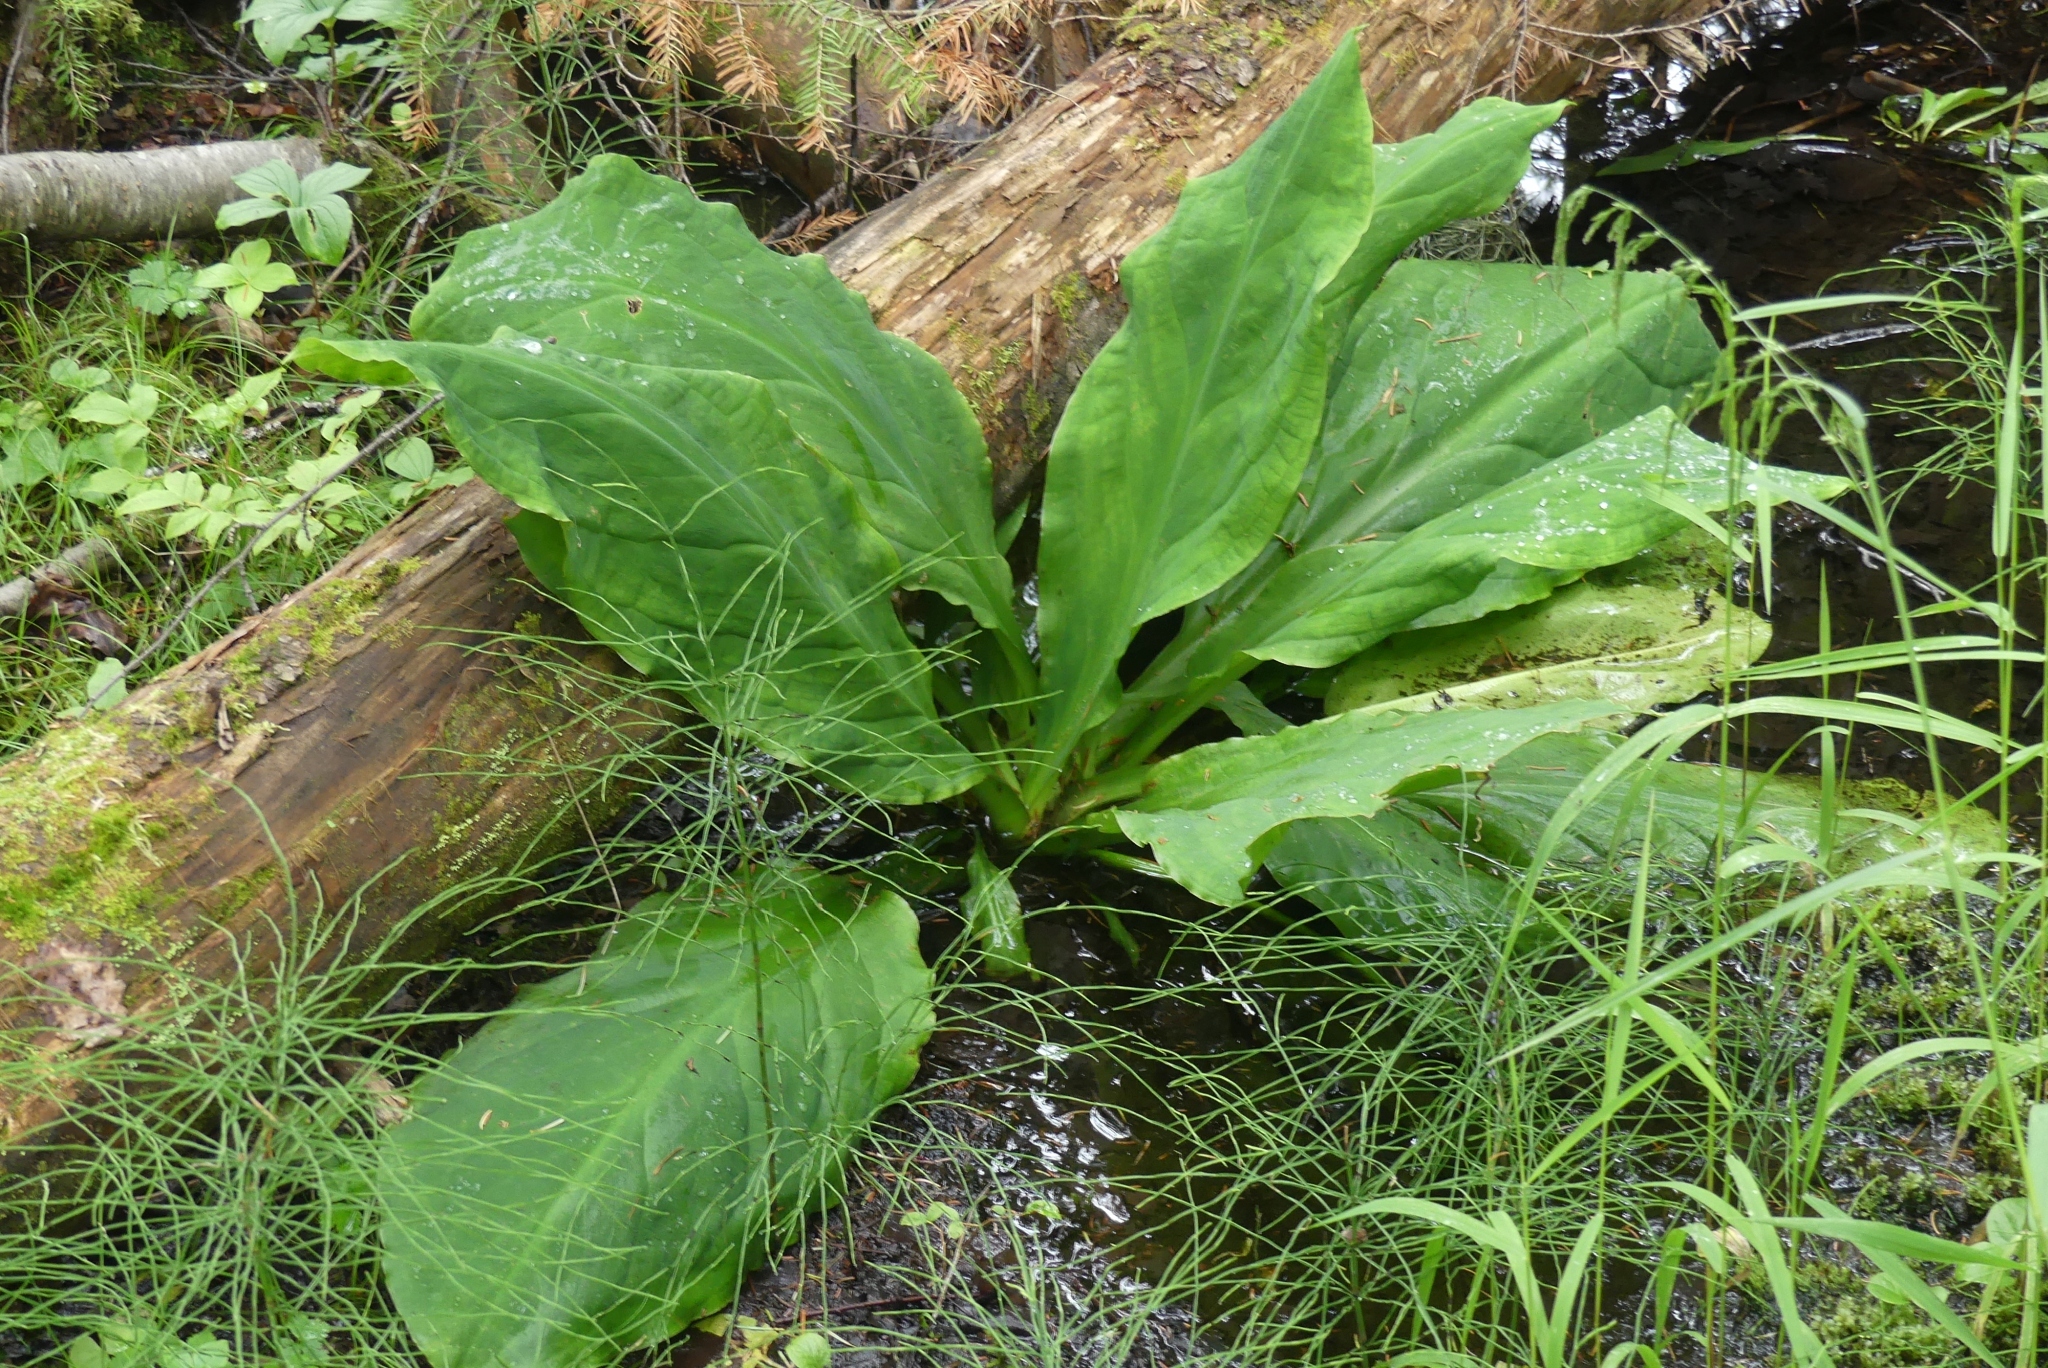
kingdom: Plantae
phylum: Tracheophyta
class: Liliopsida
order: Alismatales
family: Araceae
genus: Lysichiton
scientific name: Lysichiton americanus
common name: American skunk cabbage
